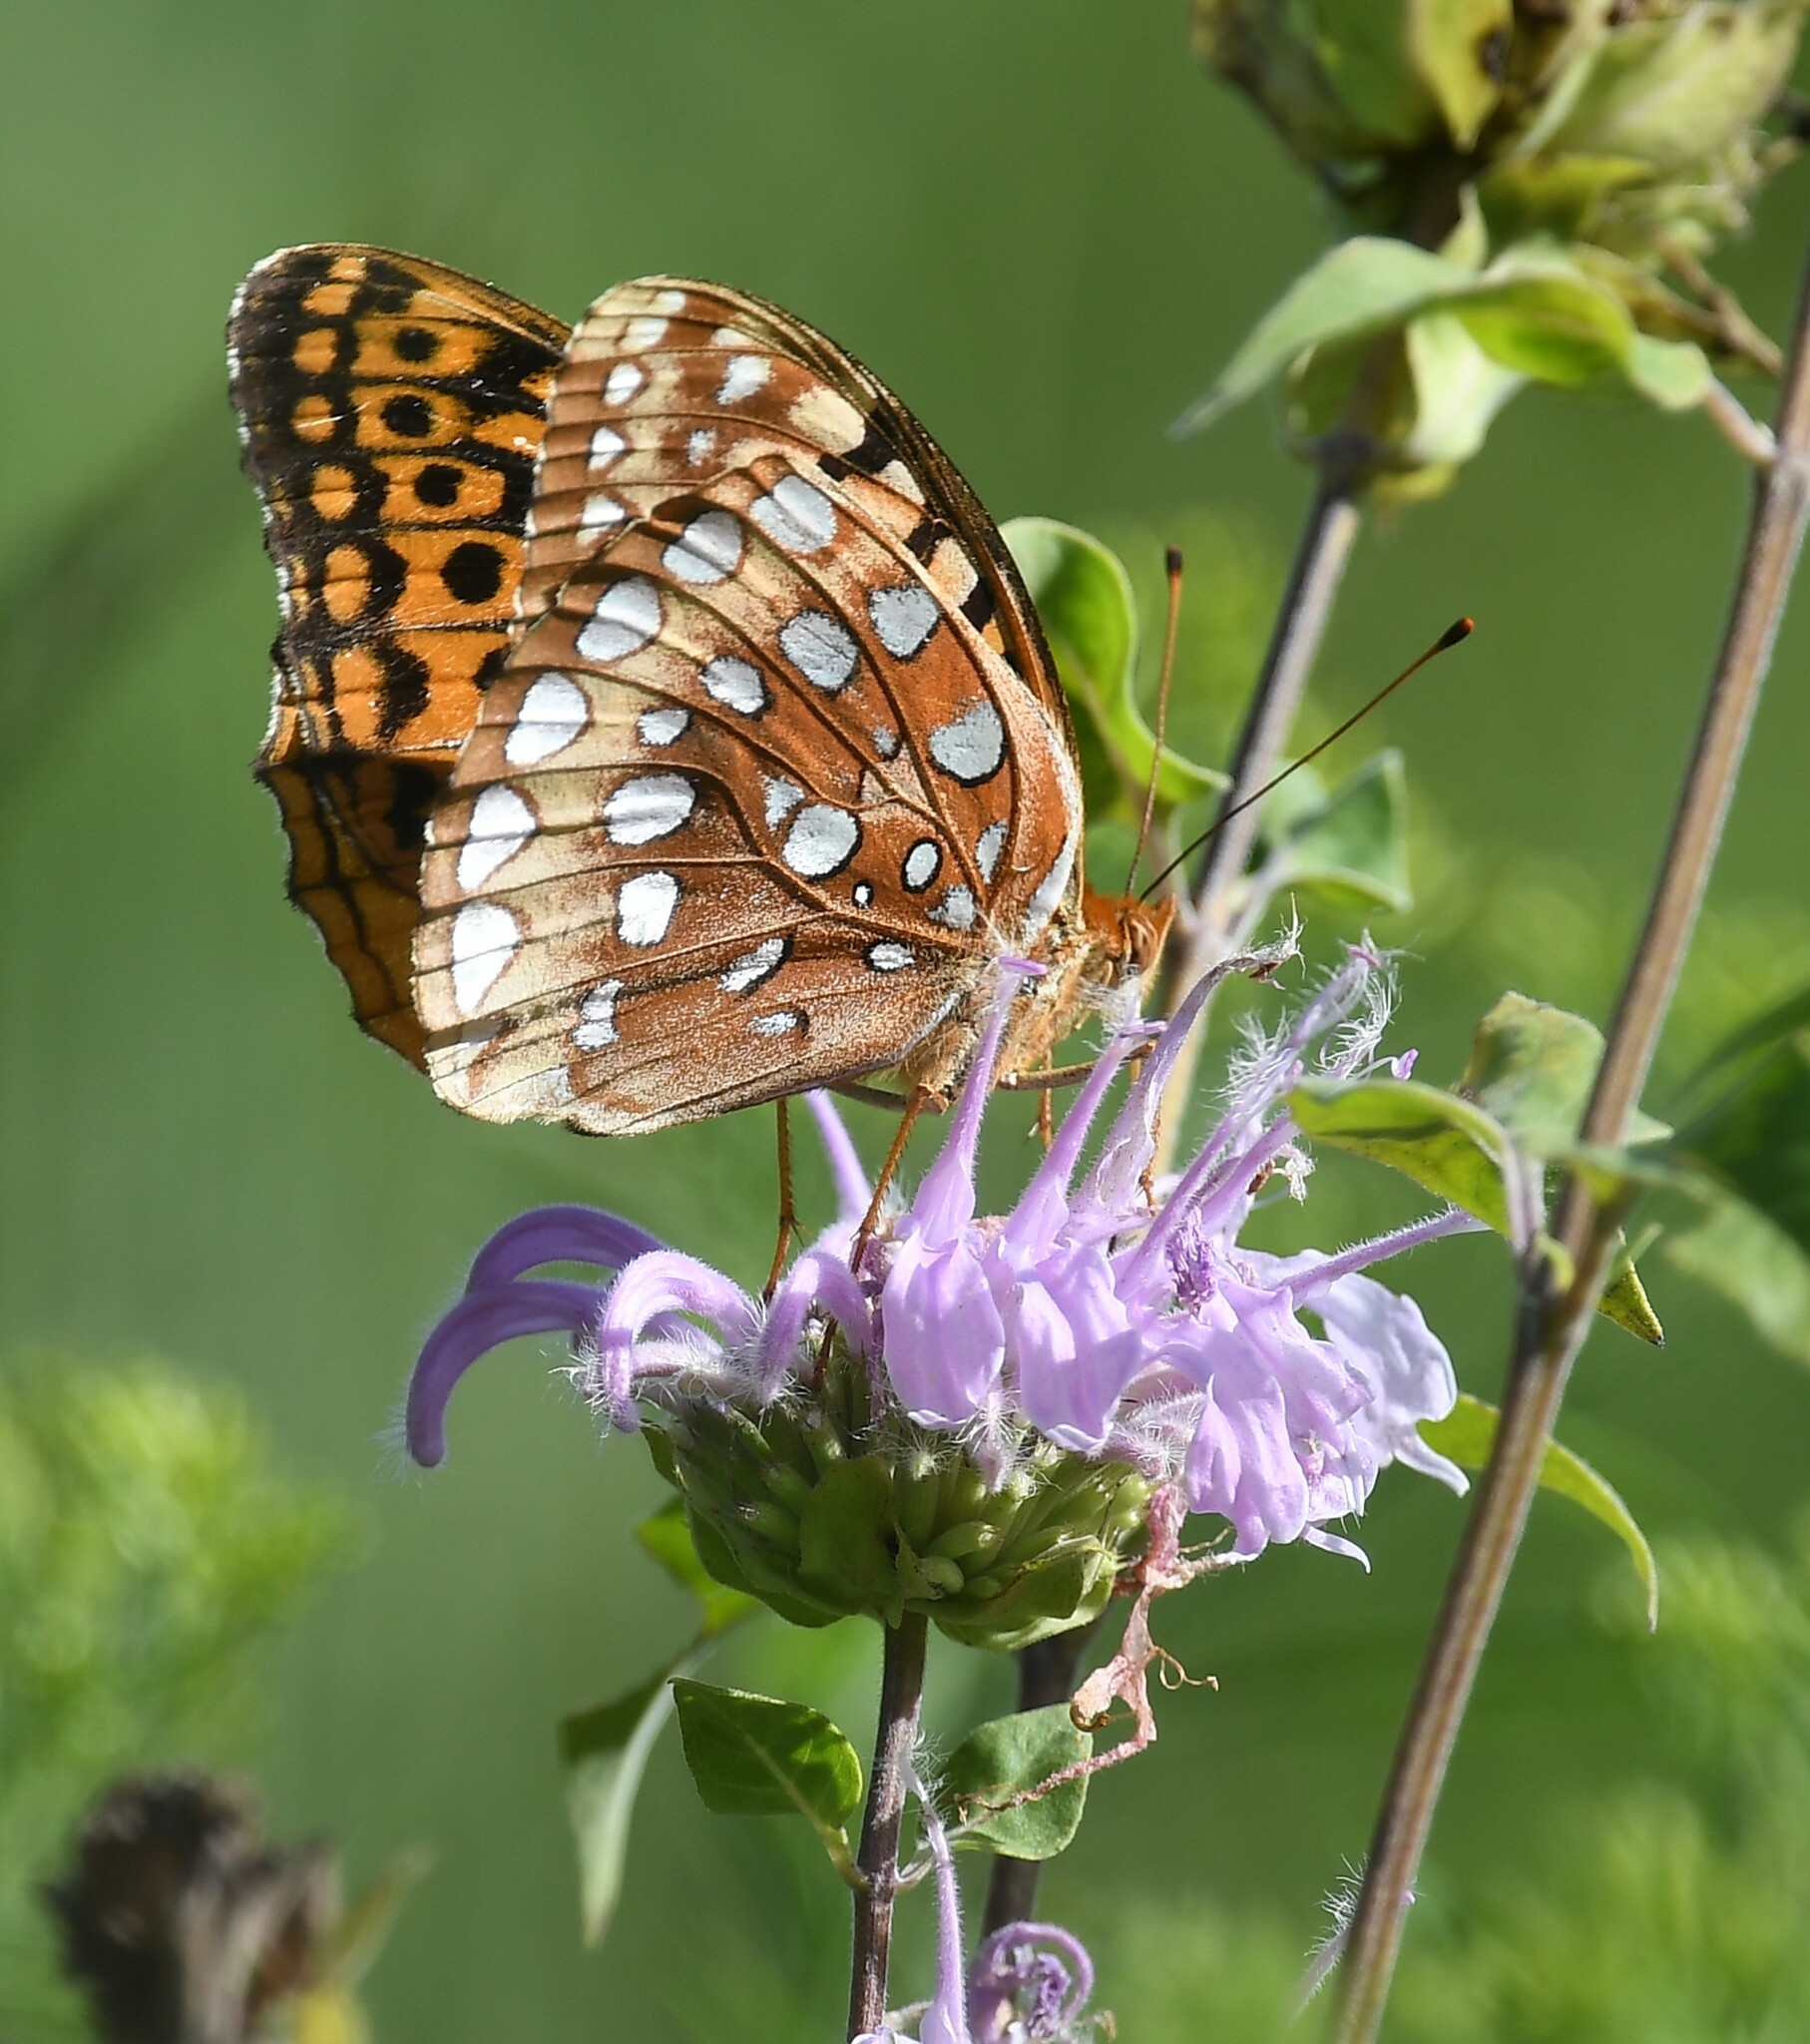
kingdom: Animalia
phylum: Arthropoda
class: Insecta
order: Lepidoptera
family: Nymphalidae
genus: Speyeria
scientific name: Speyeria cybele
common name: Great spangled fritillary
